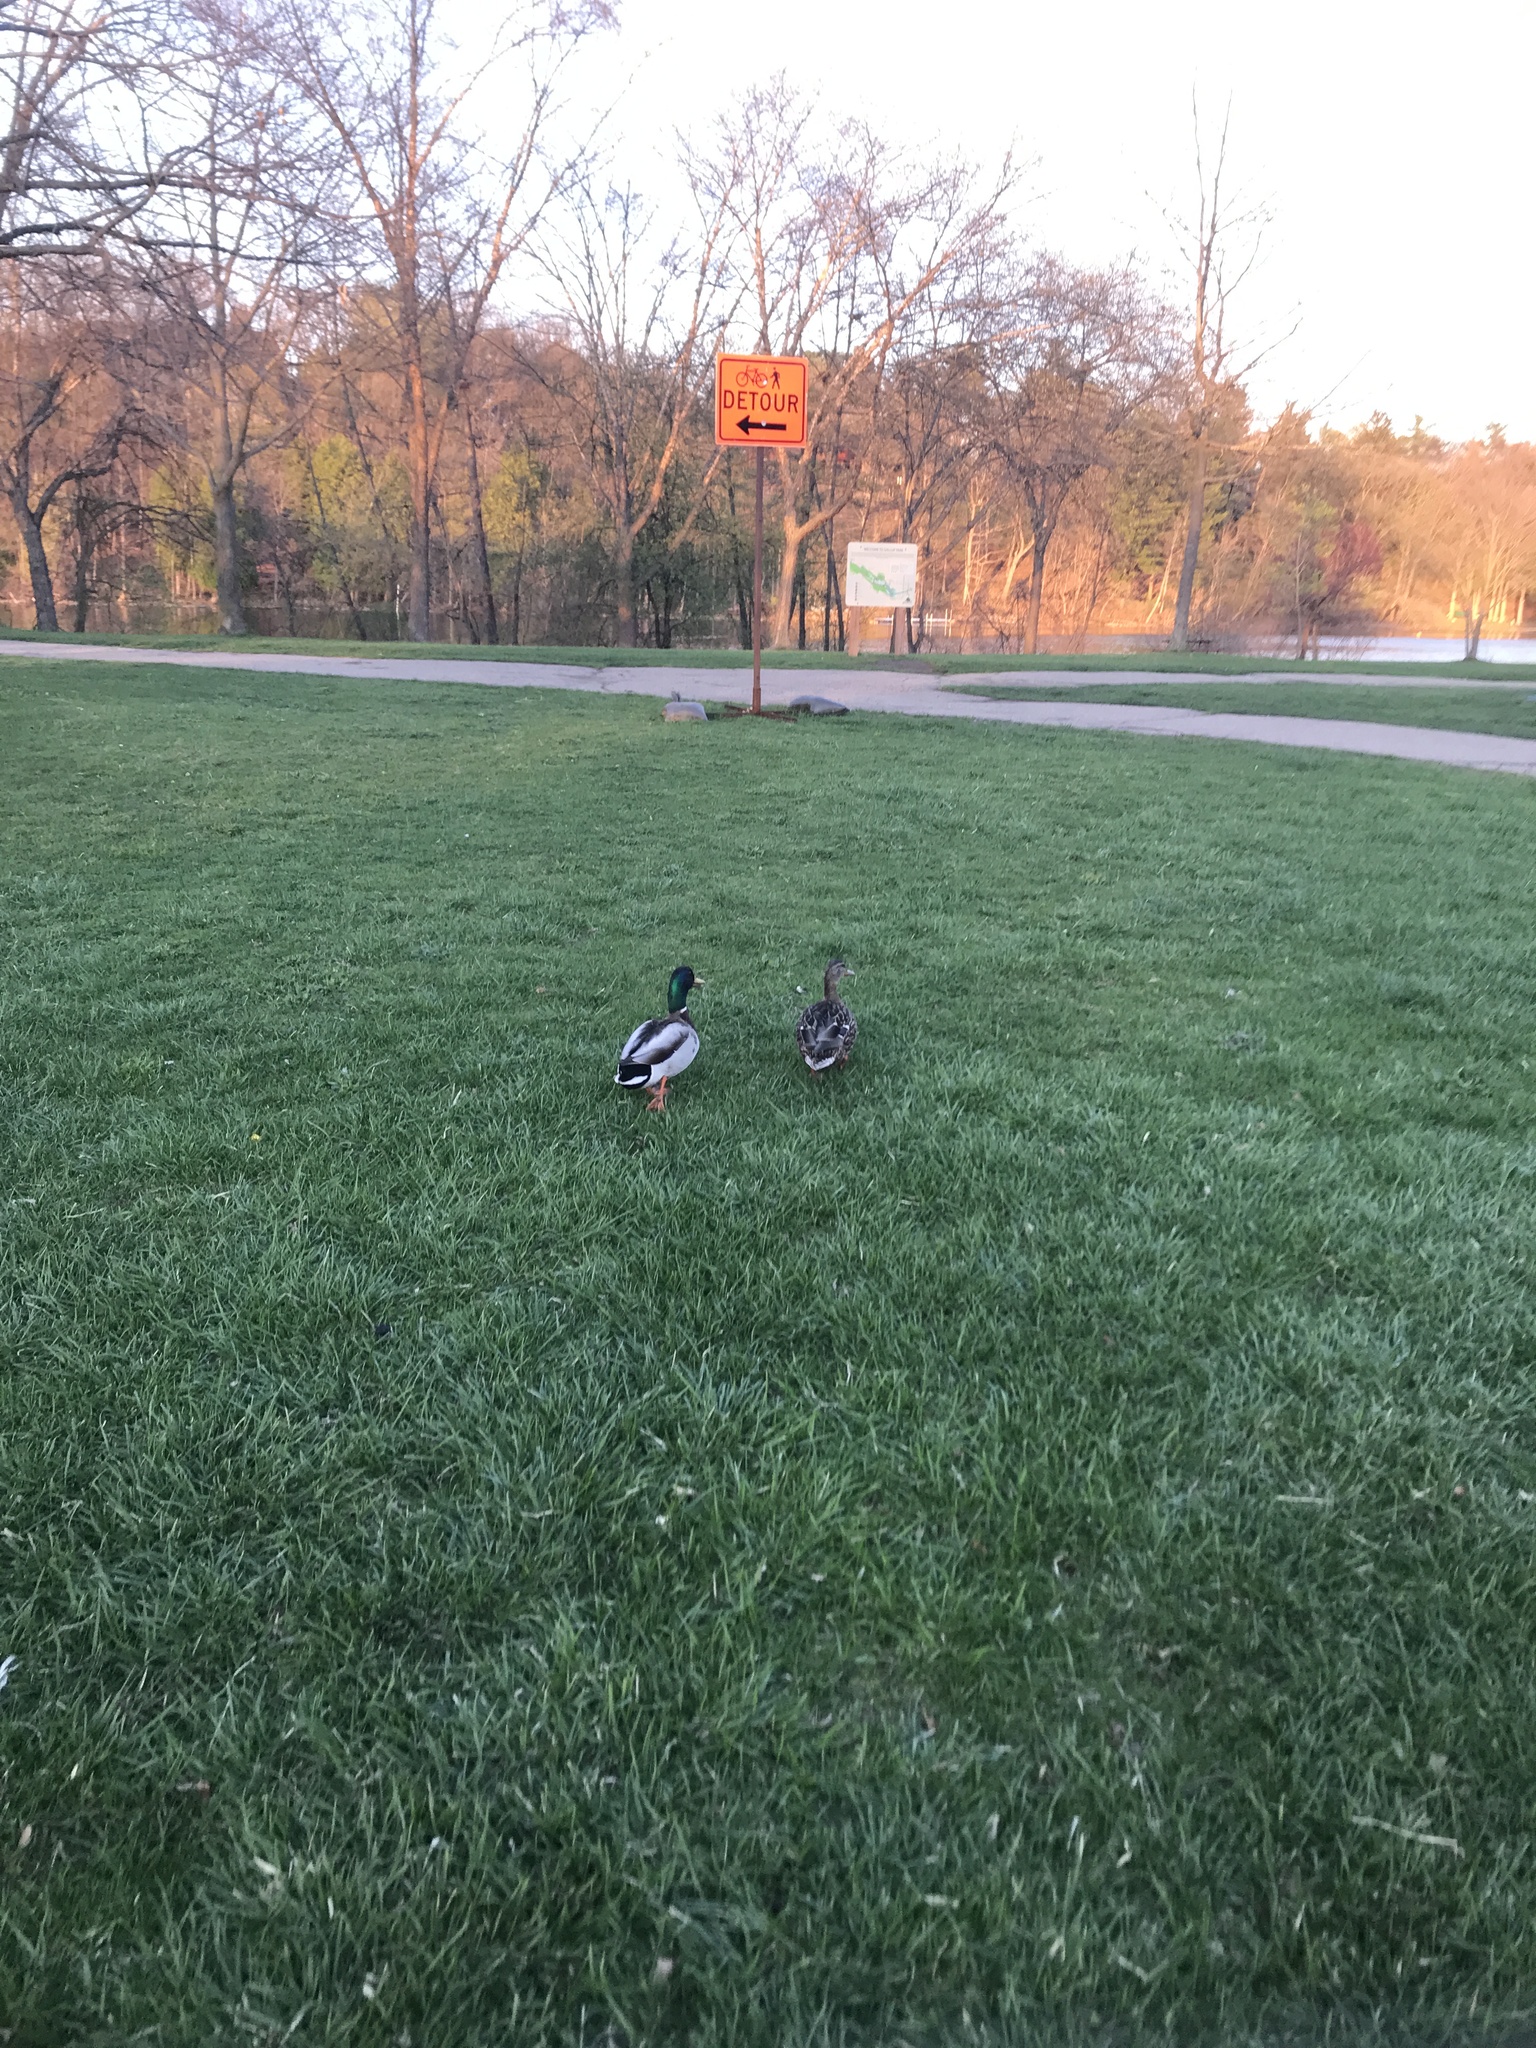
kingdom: Animalia
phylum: Chordata
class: Aves
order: Anseriformes
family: Anatidae
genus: Anas
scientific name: Anas platyrhynchos
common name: Mallard
